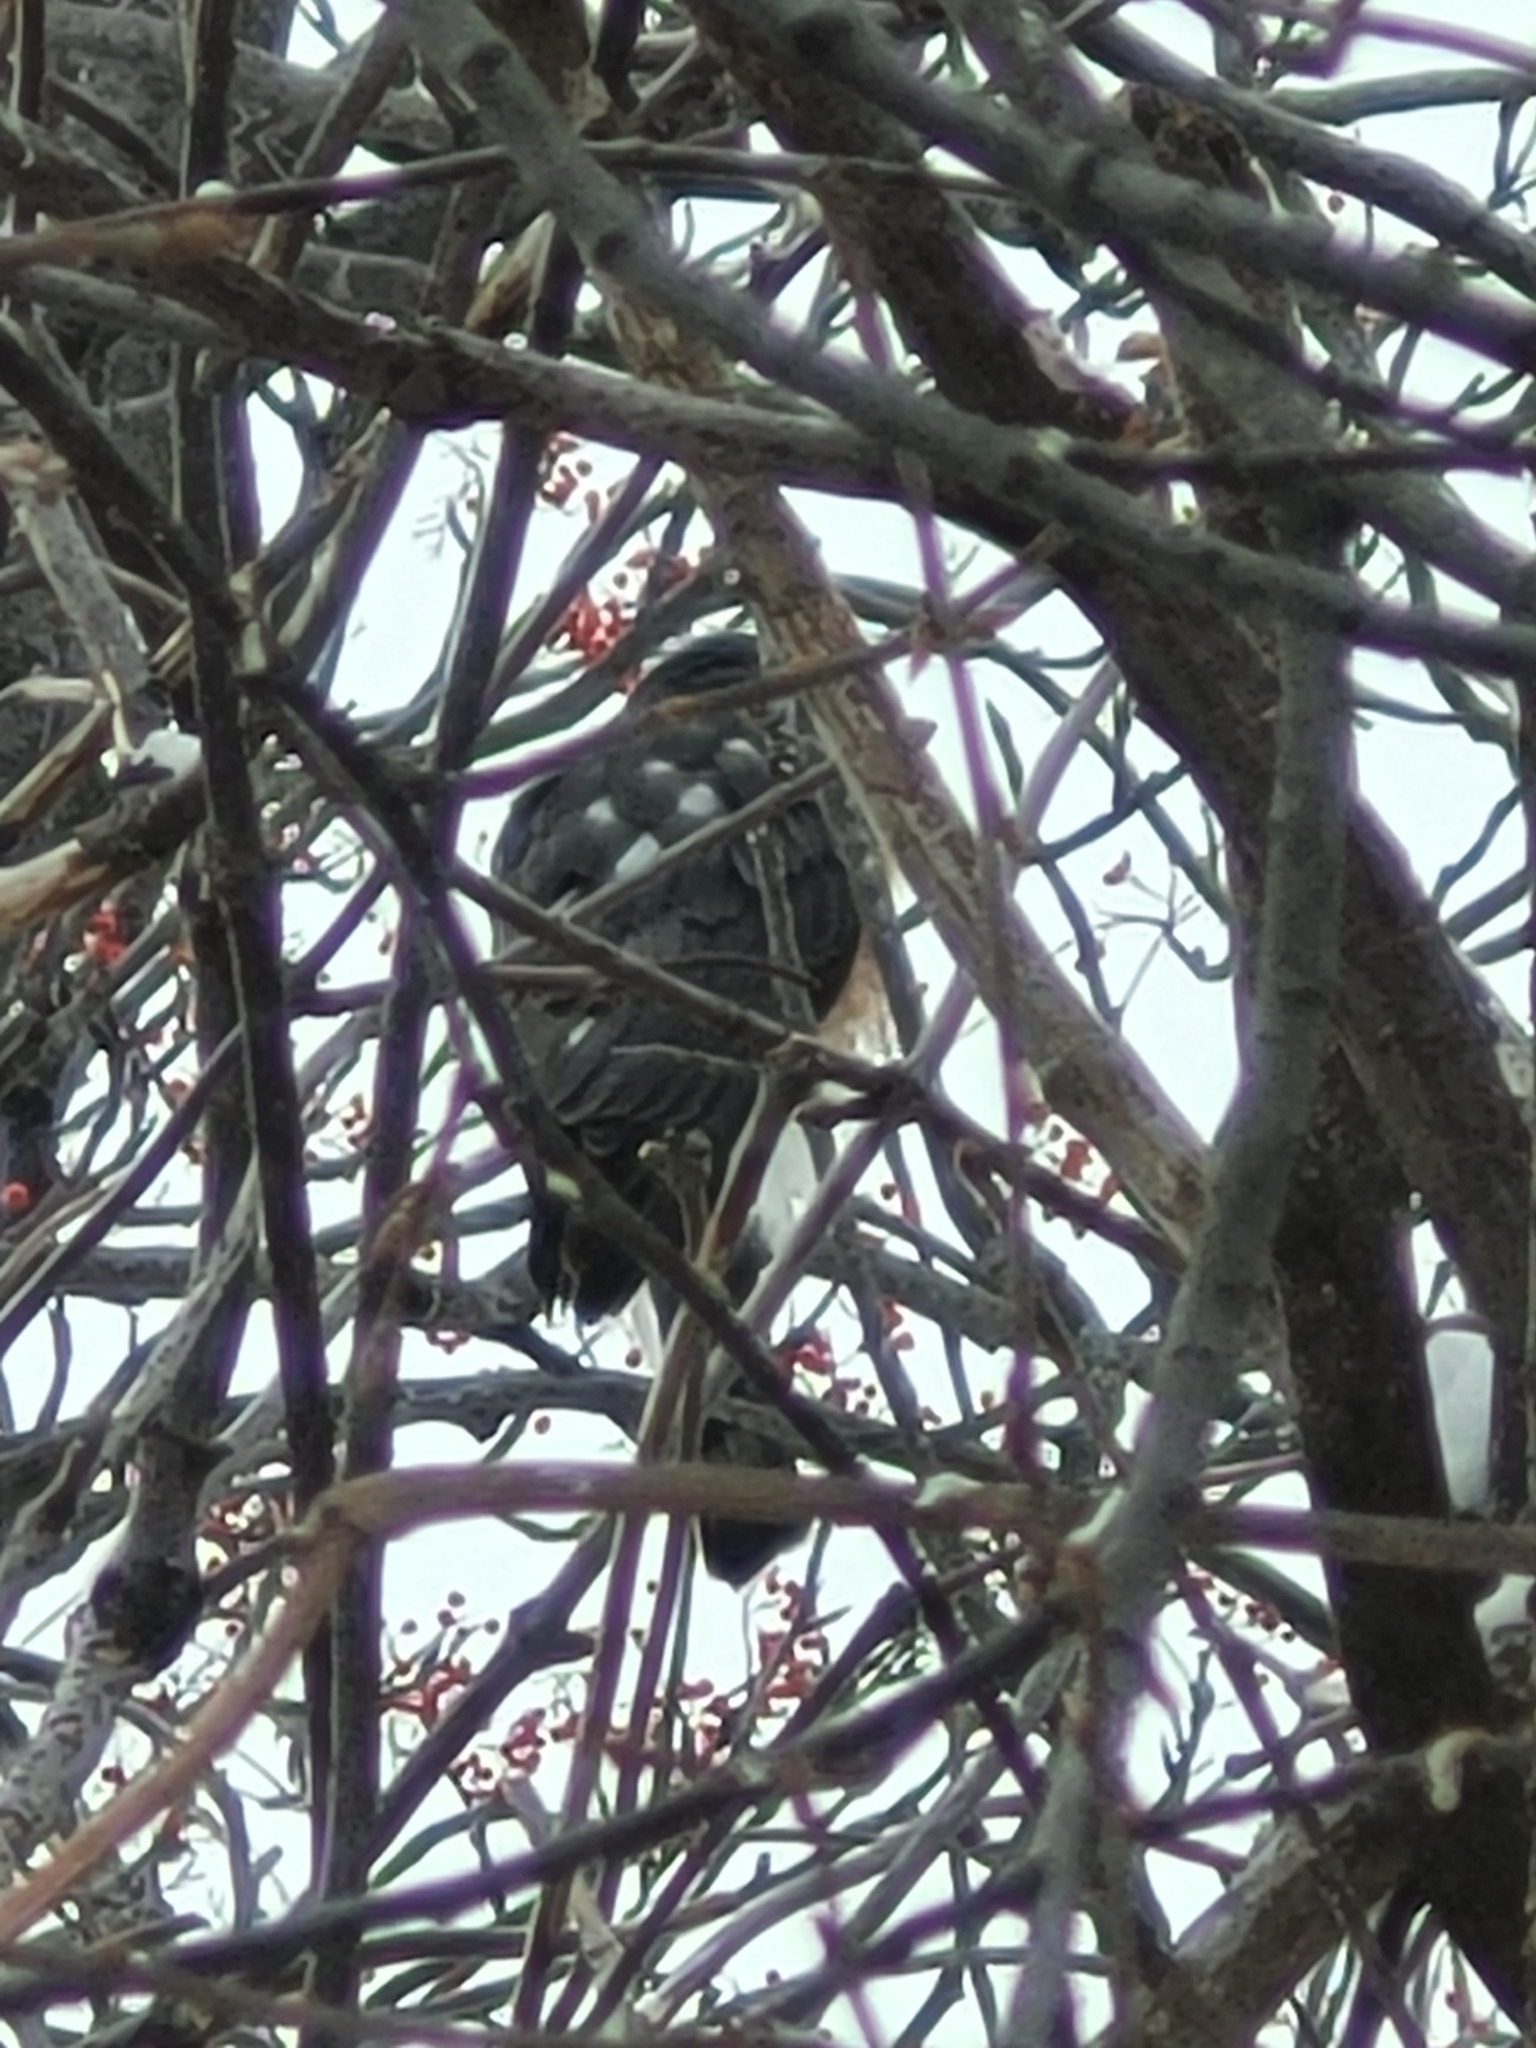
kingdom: Animalia
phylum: Chordata
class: Aves
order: Accipitriformes
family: Accipitridae
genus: Accipiter
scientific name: Accipiter striatus
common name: Sharp-shinned hawk
